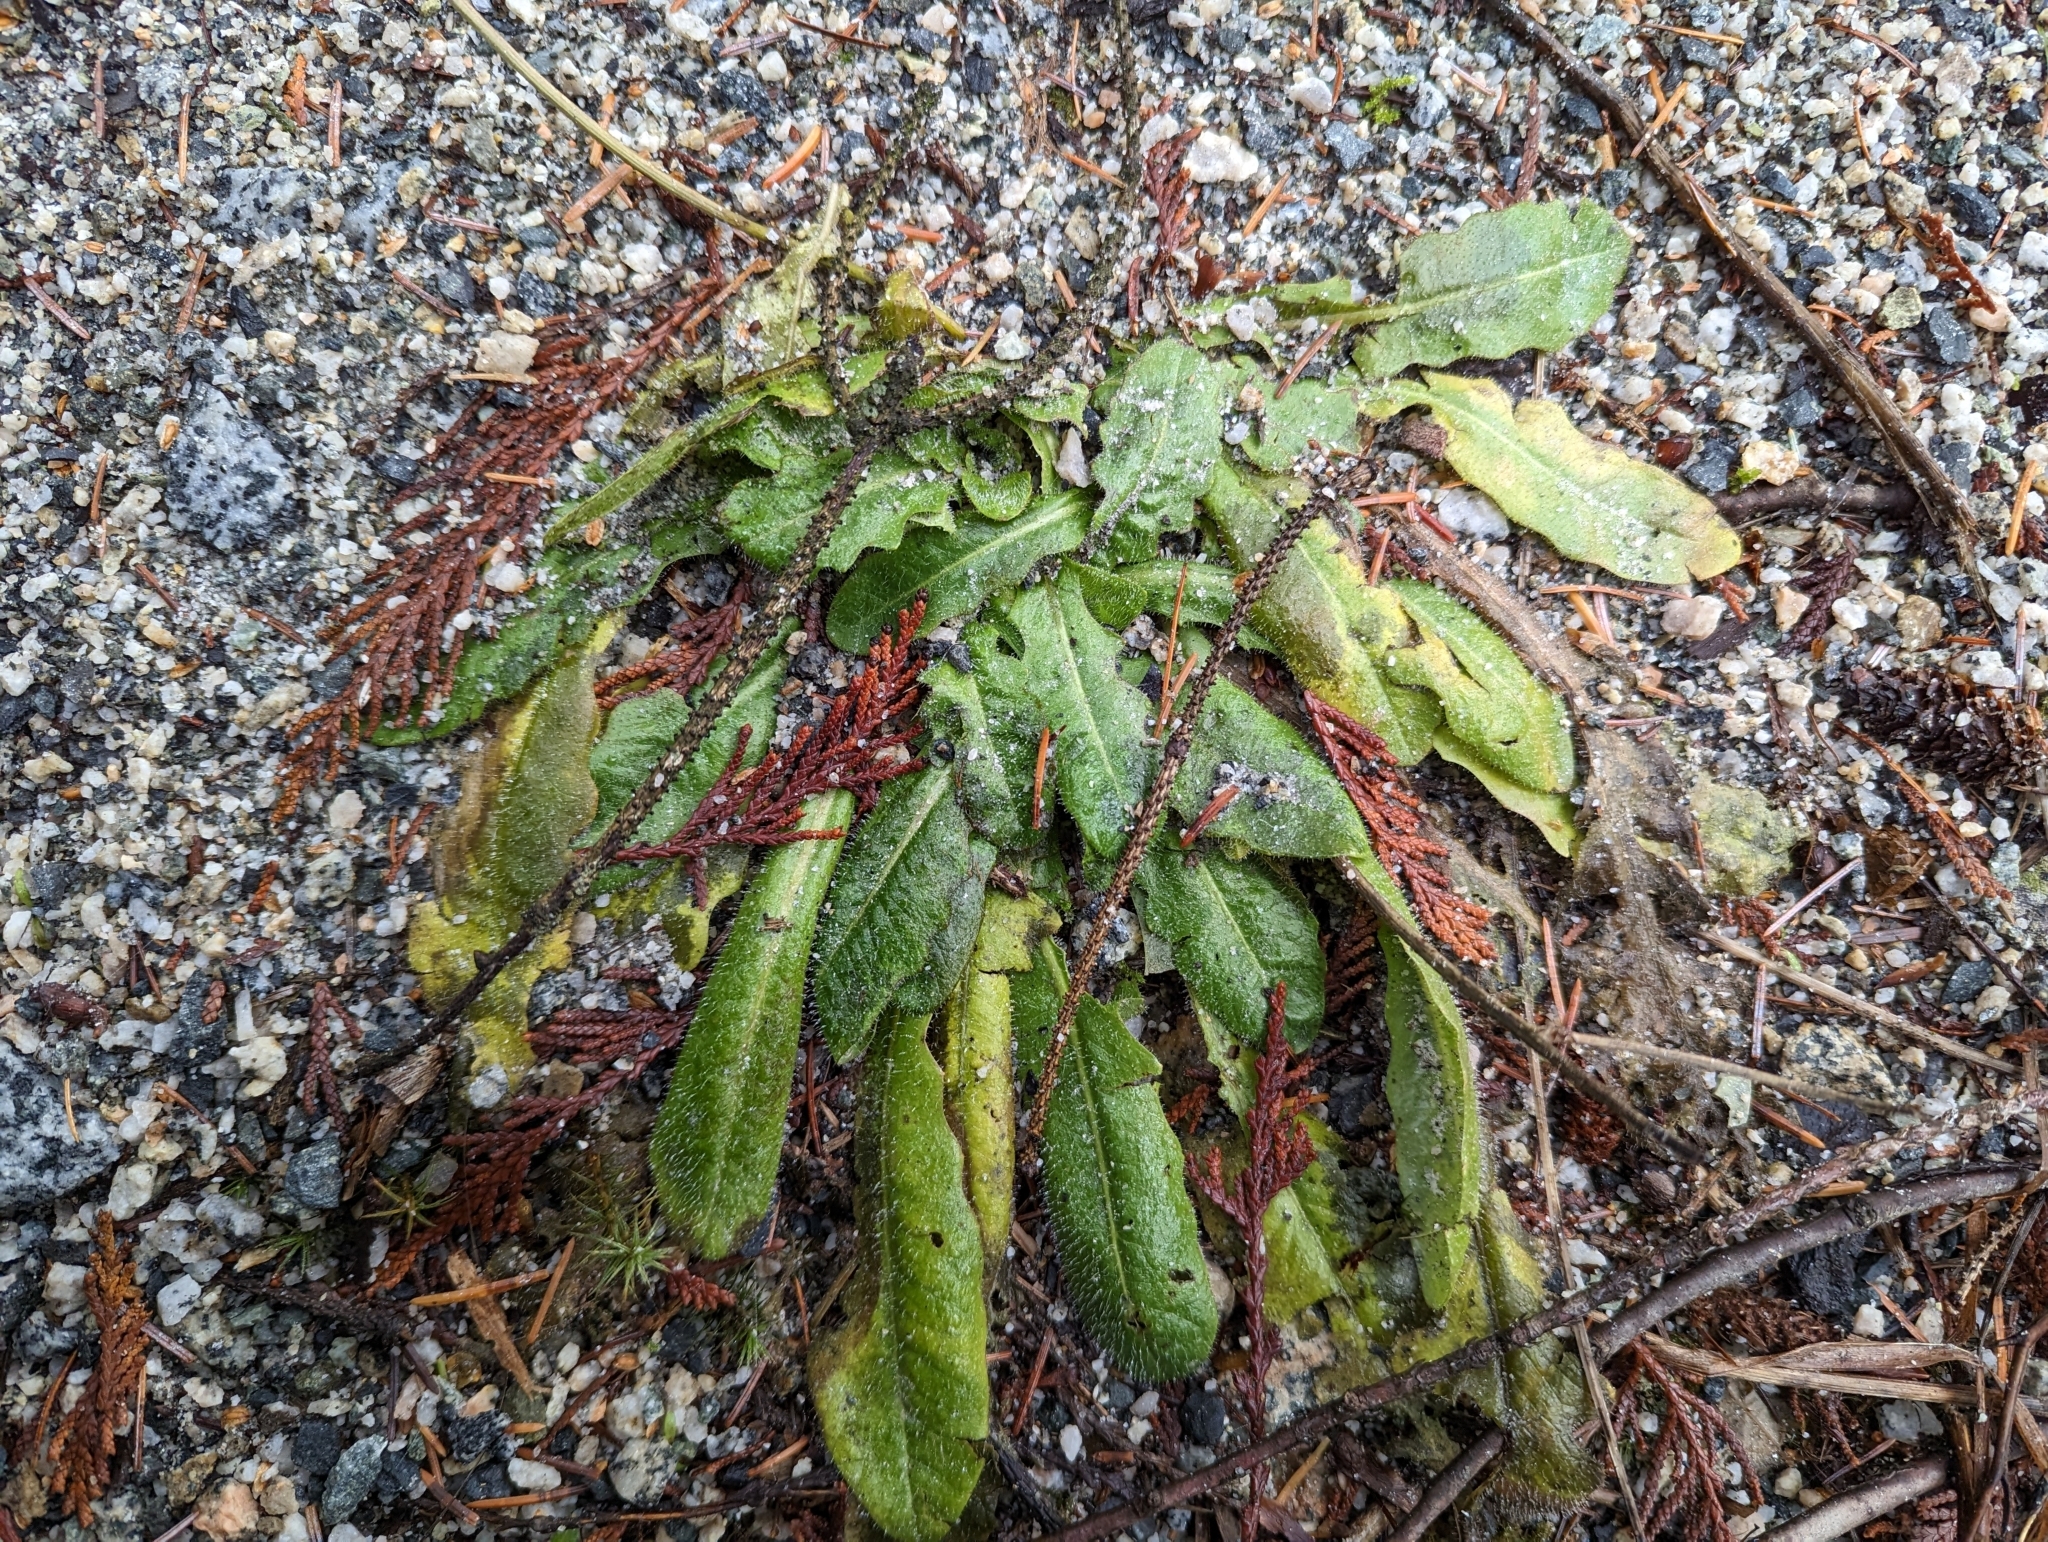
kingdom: Plantae
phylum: Tracheophyta
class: Magnoliopsida
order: Asterales
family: Asteraceae
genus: Hypochaeris
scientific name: Hypochaeris radicata
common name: Flatweed
